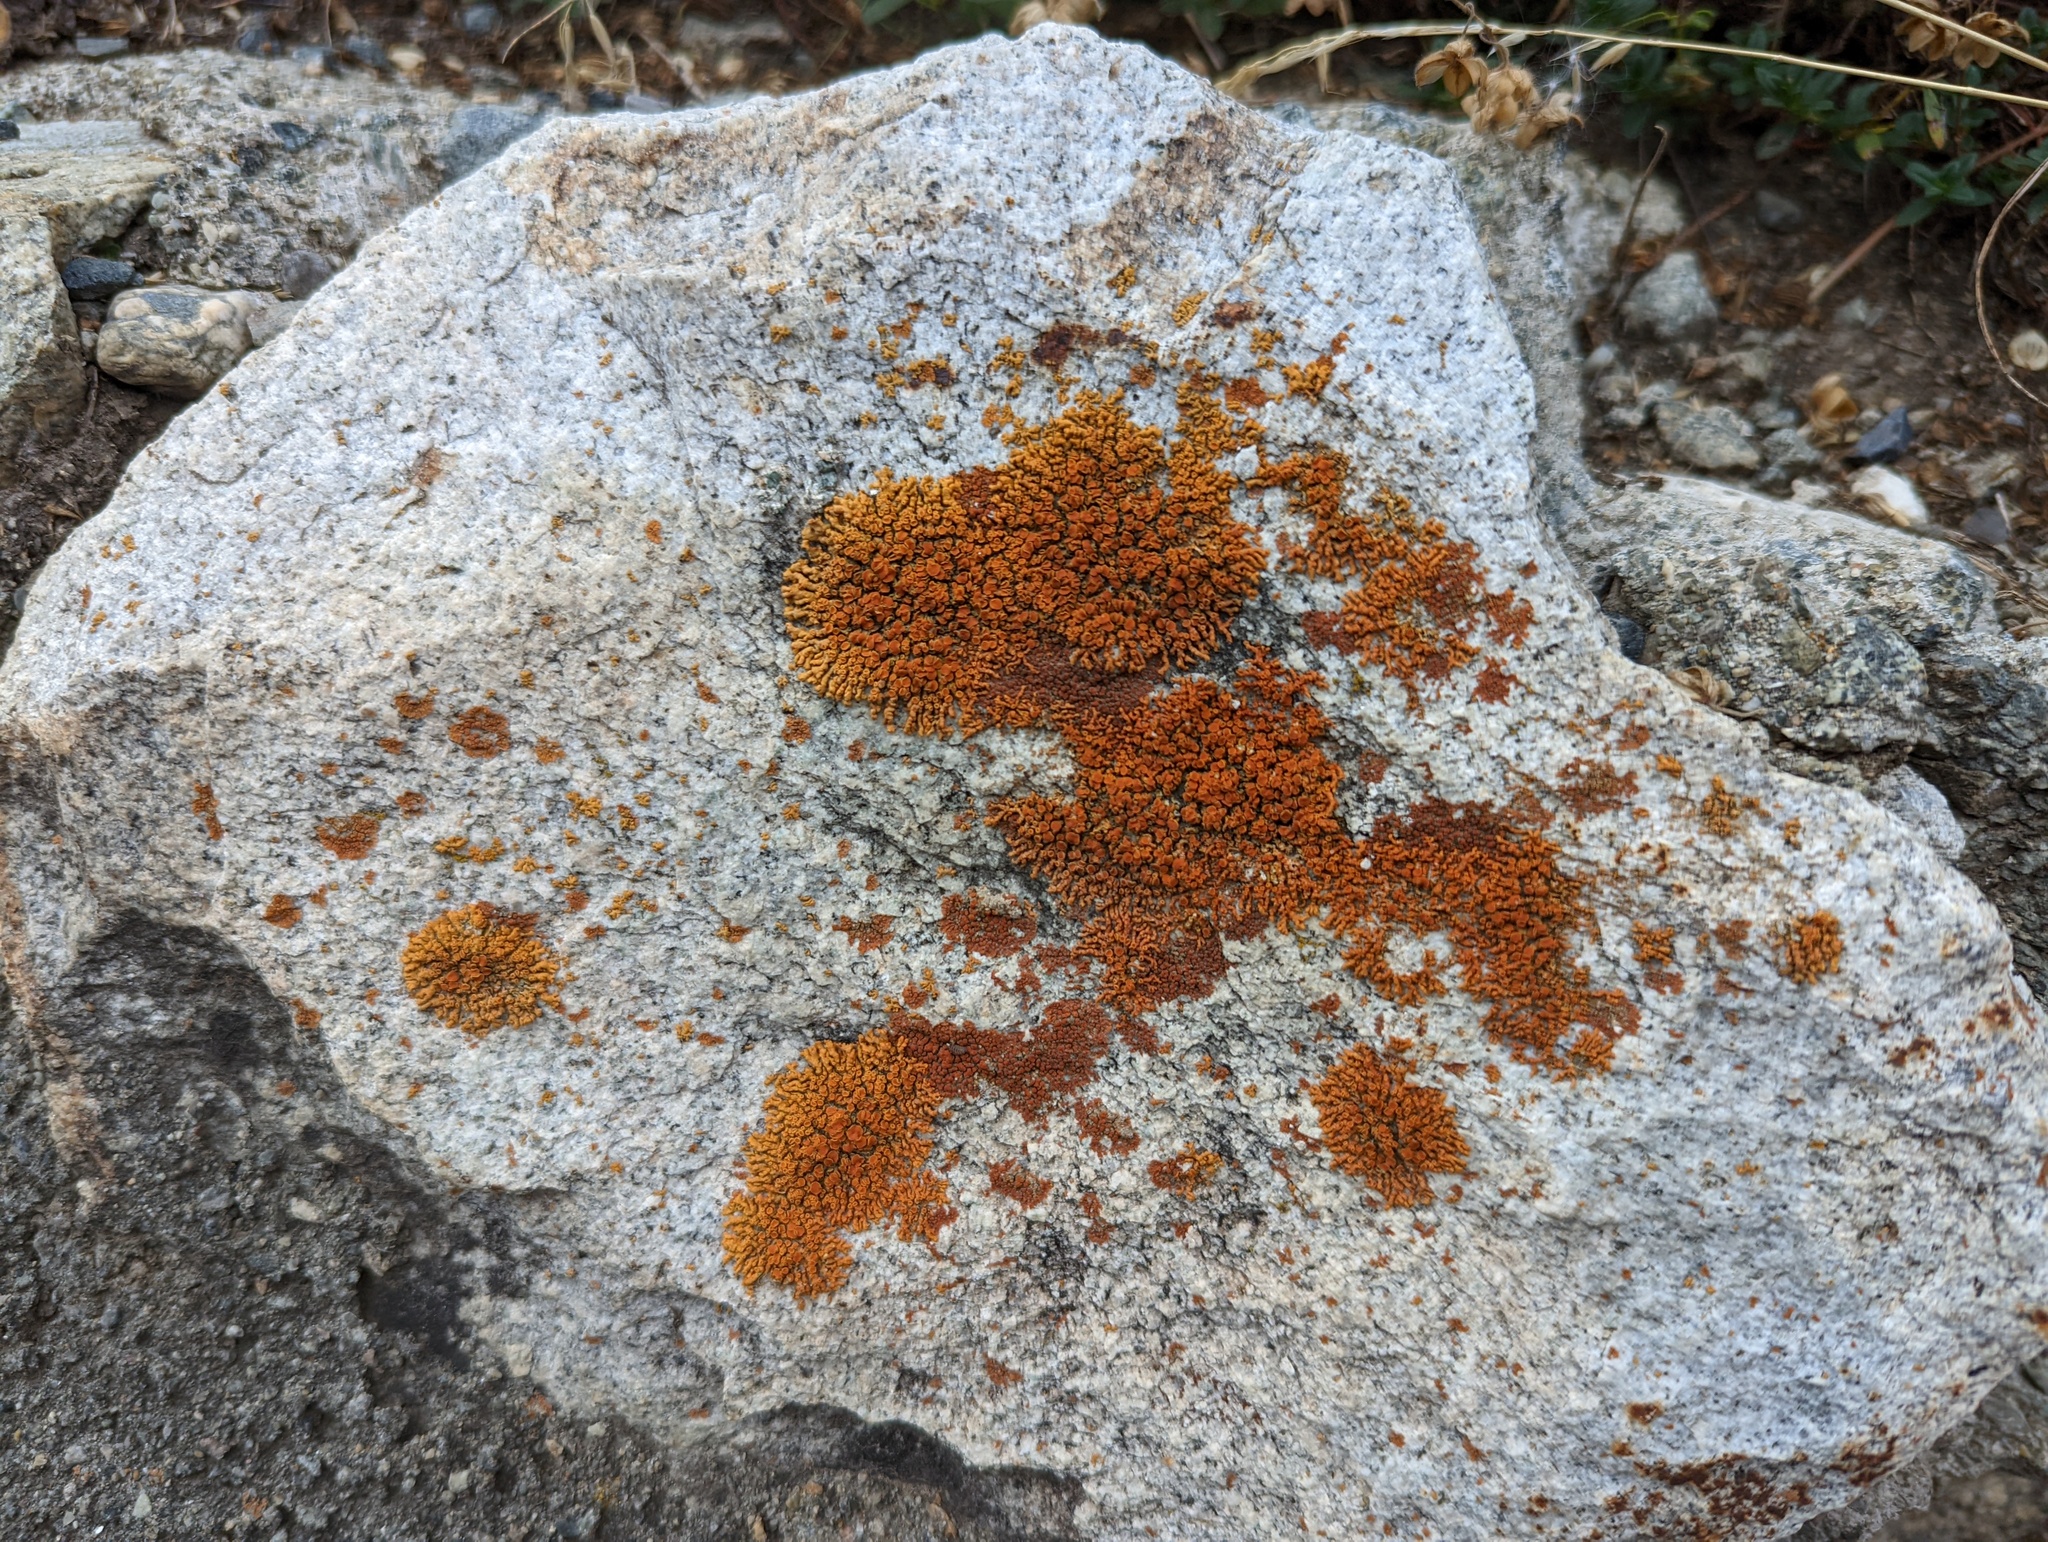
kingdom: Fungi
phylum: Ascomycota
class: Lecanoromycetes
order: Teloschistales
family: Teloschistaceae
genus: Xanthoria
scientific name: Xanthoria elegans
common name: Elegant sunburst lichen
